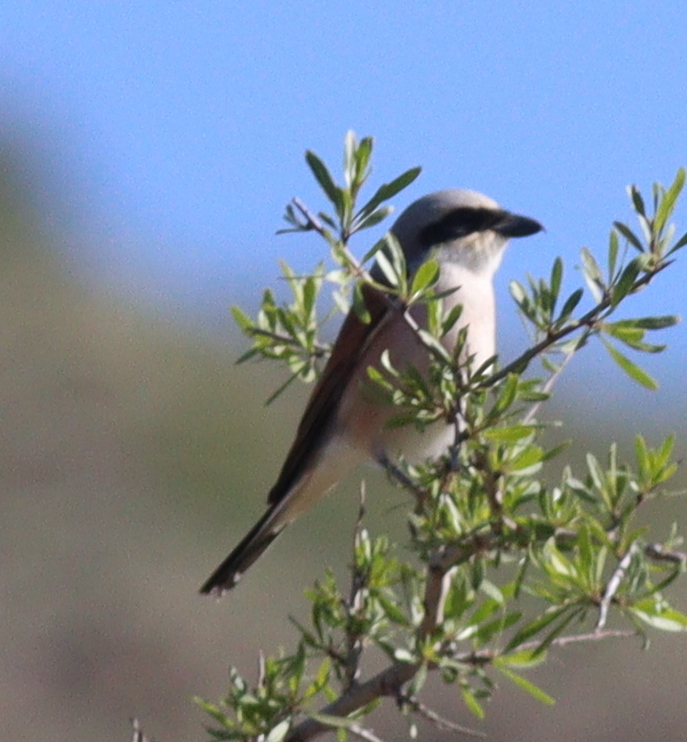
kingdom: Animalia
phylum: Chordata
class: Aves
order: Passeriformes
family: Laniidae
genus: Lanius
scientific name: Lanius collurio
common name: Red-backed shrike
